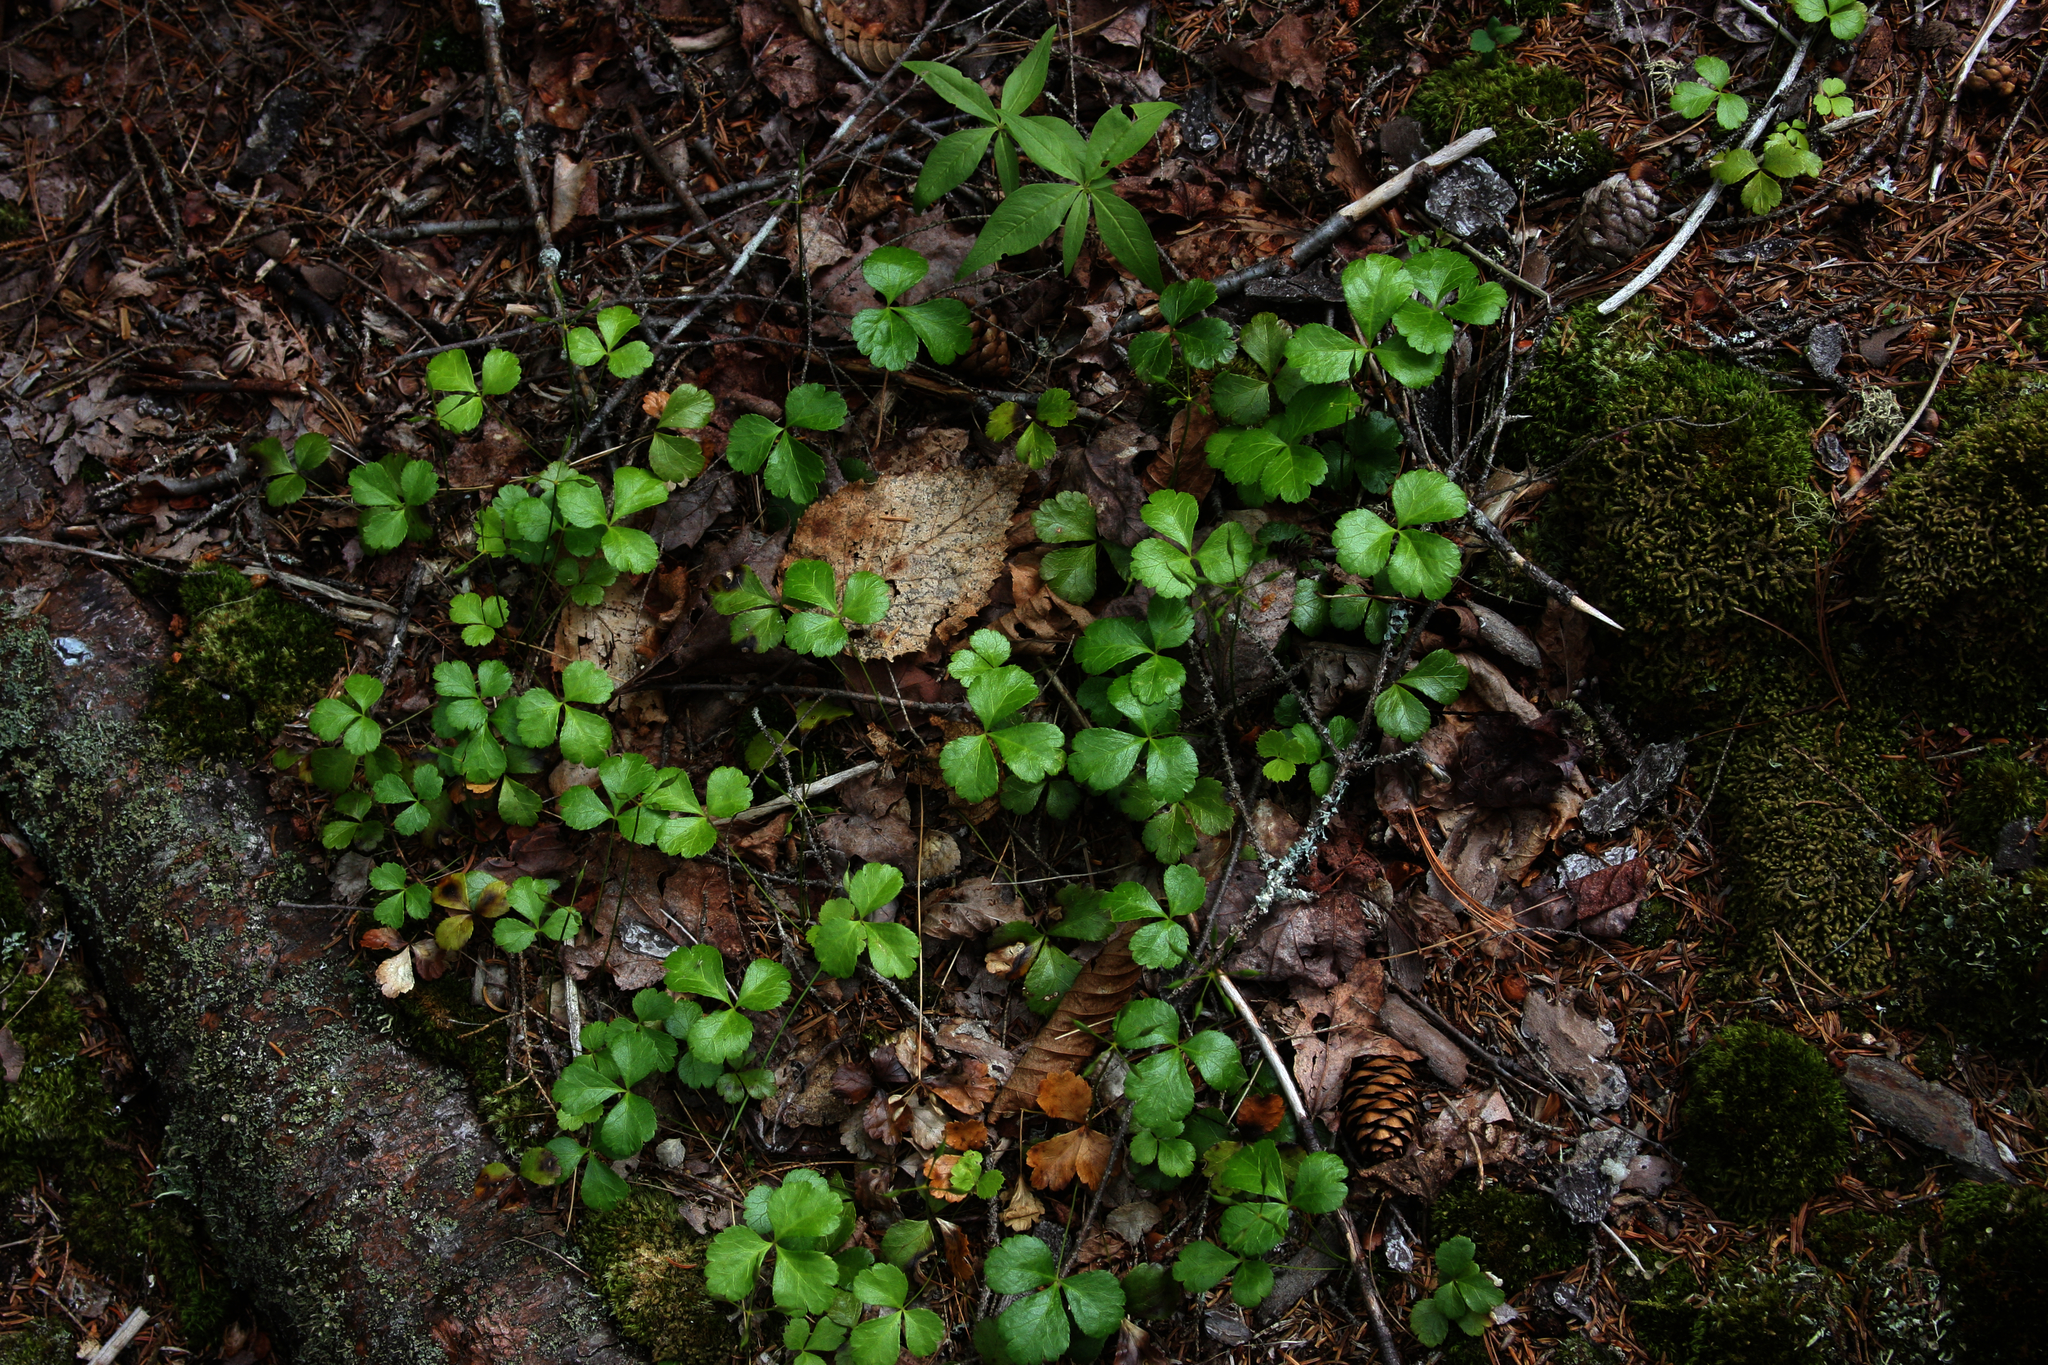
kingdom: Plantae
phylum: Tracheophyta
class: Magnoliopsida
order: Ranunculales
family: Ranunculaceae
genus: Coptis
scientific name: Coptis trifolia
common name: Canker-root
